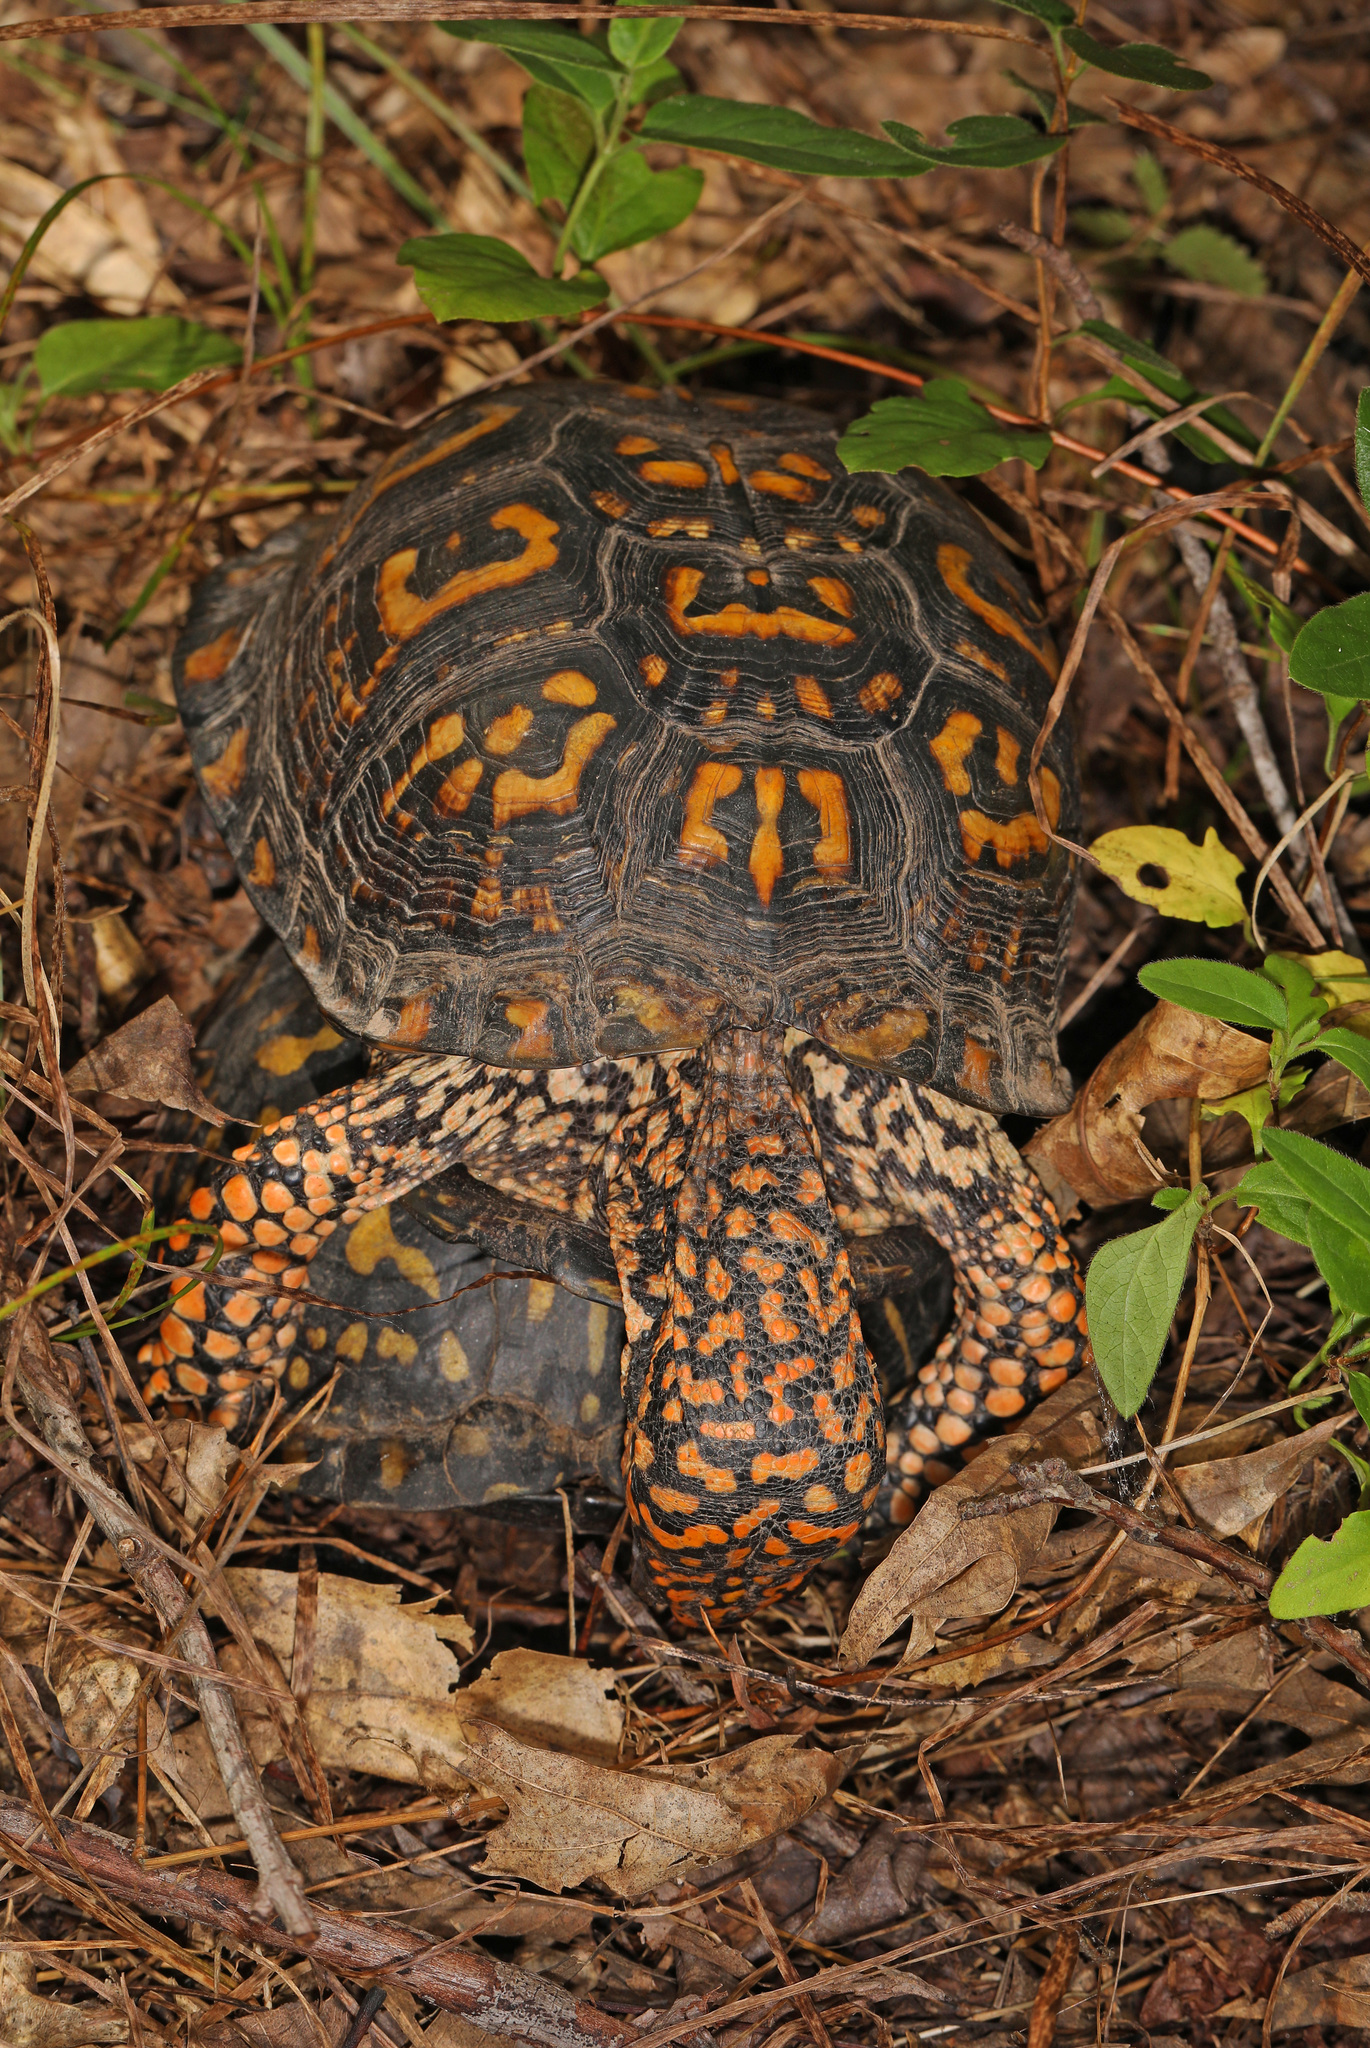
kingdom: Animalia
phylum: Chordata
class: Testudines
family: Emydidae
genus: Terrapene
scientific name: Terrapene carolina
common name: Common box turtle
